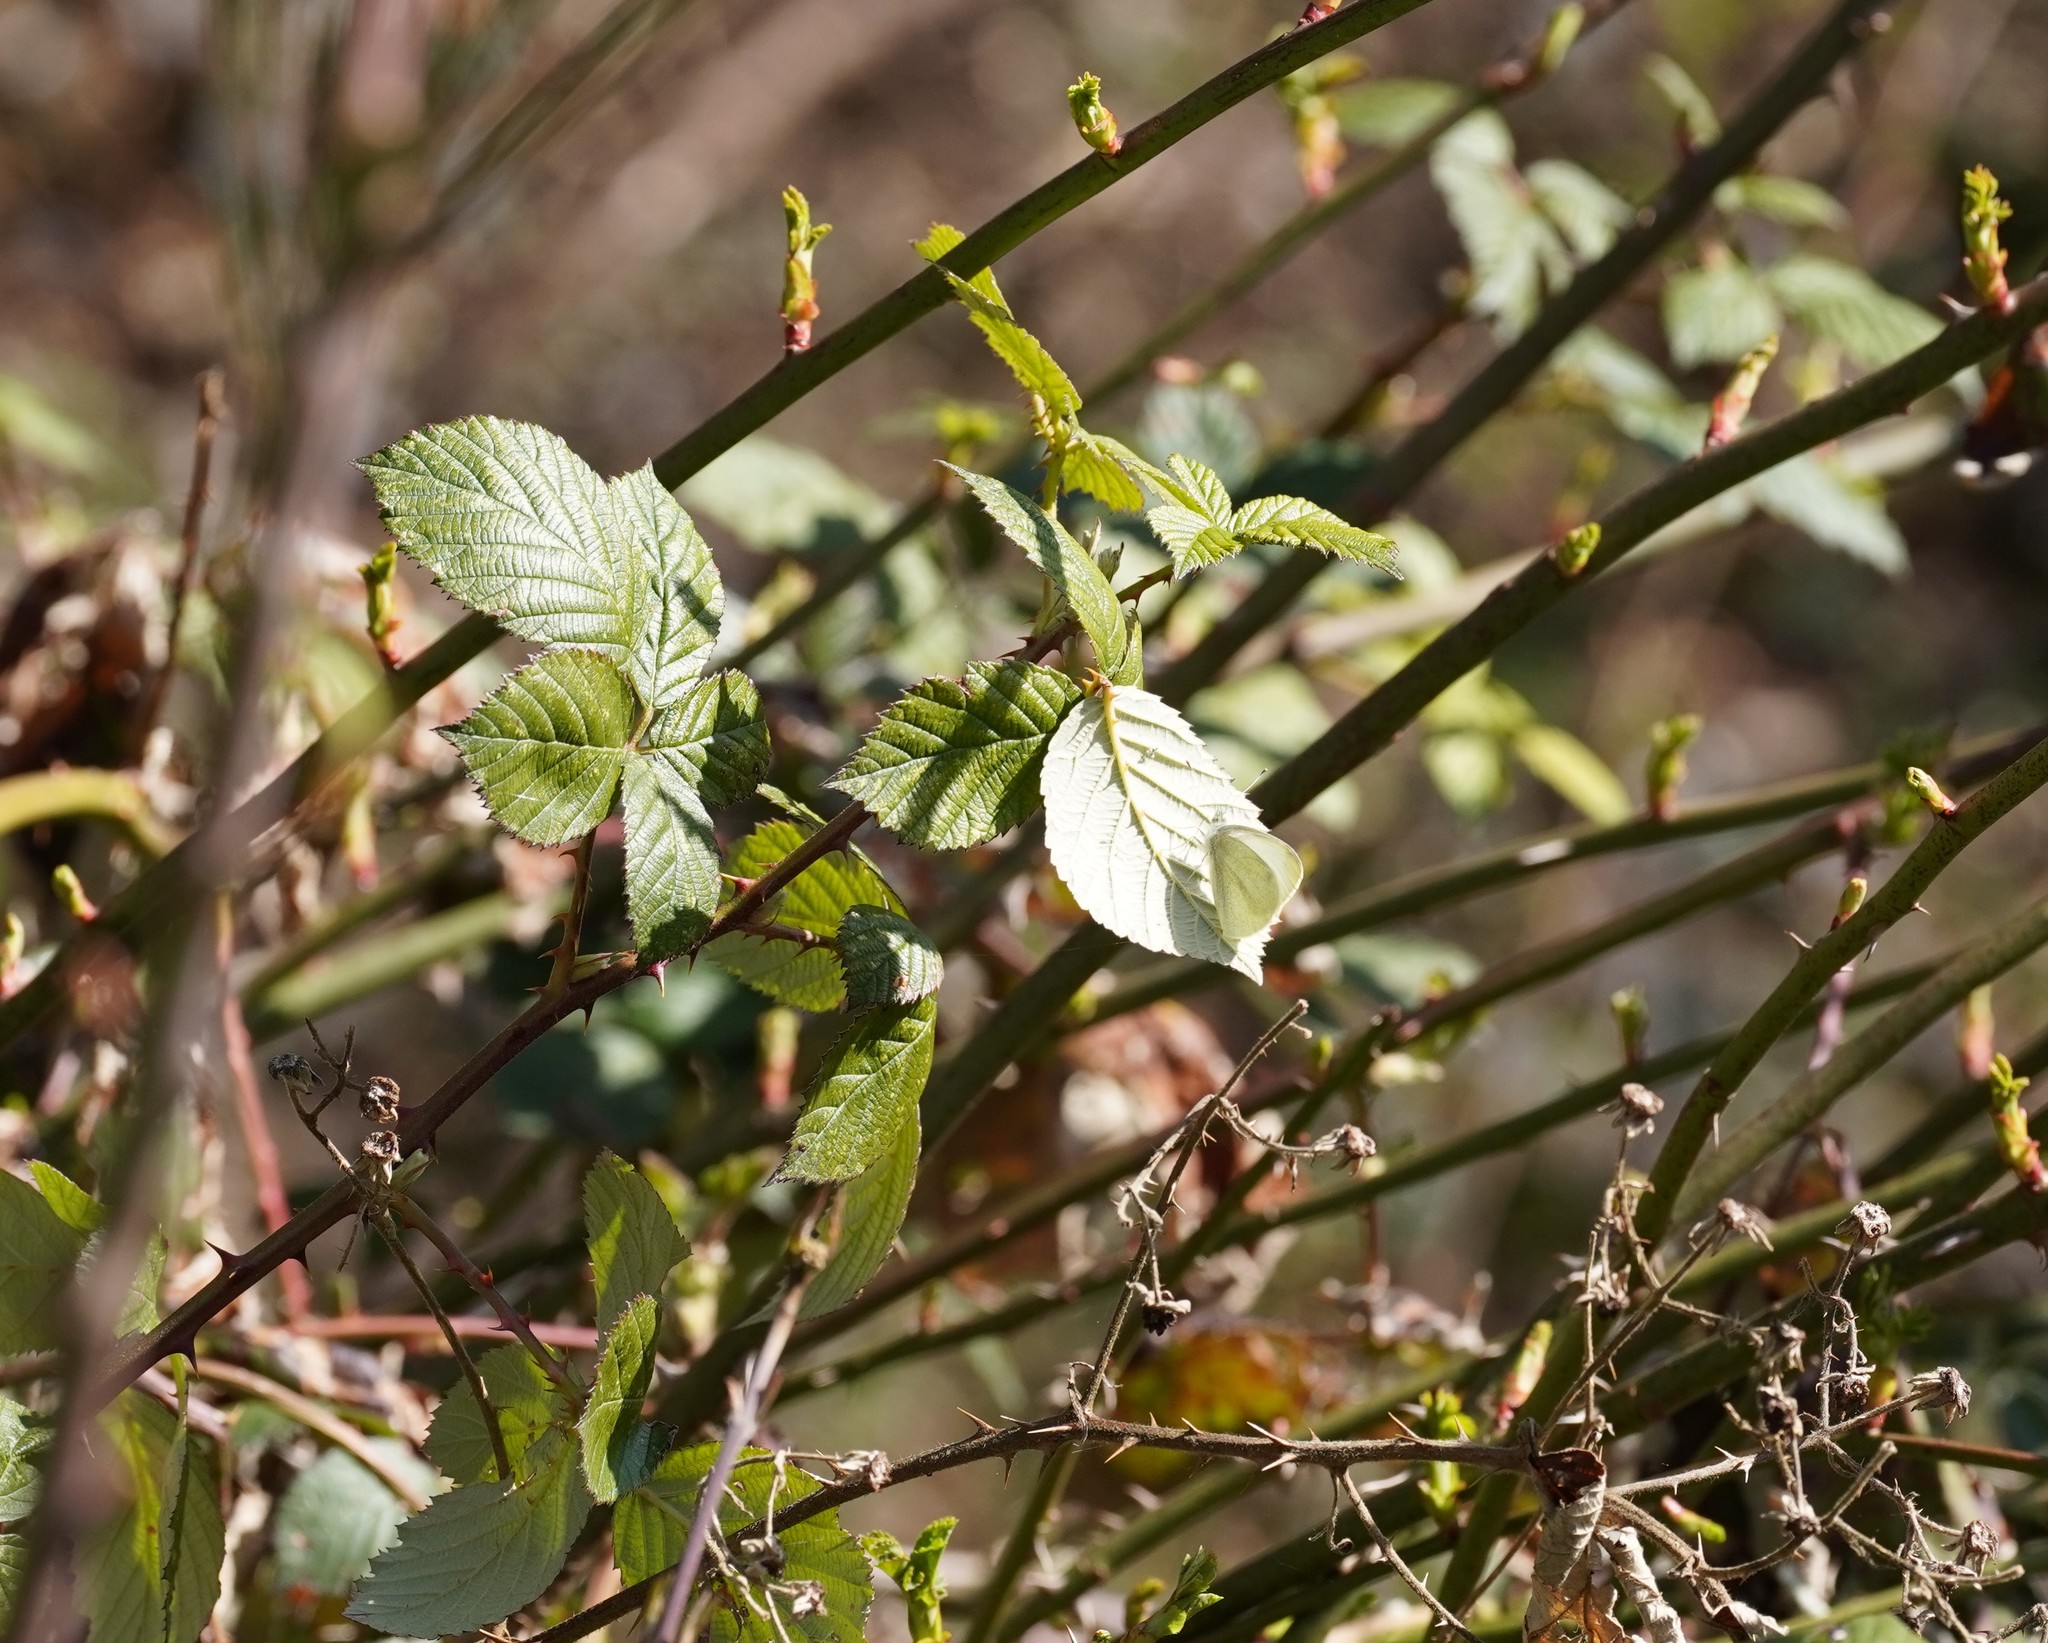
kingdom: Animalia
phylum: Arthropoda
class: Insecta
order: Lepidoptera
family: Pieridae
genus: Pieris
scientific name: Pieris rapae
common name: Small white
